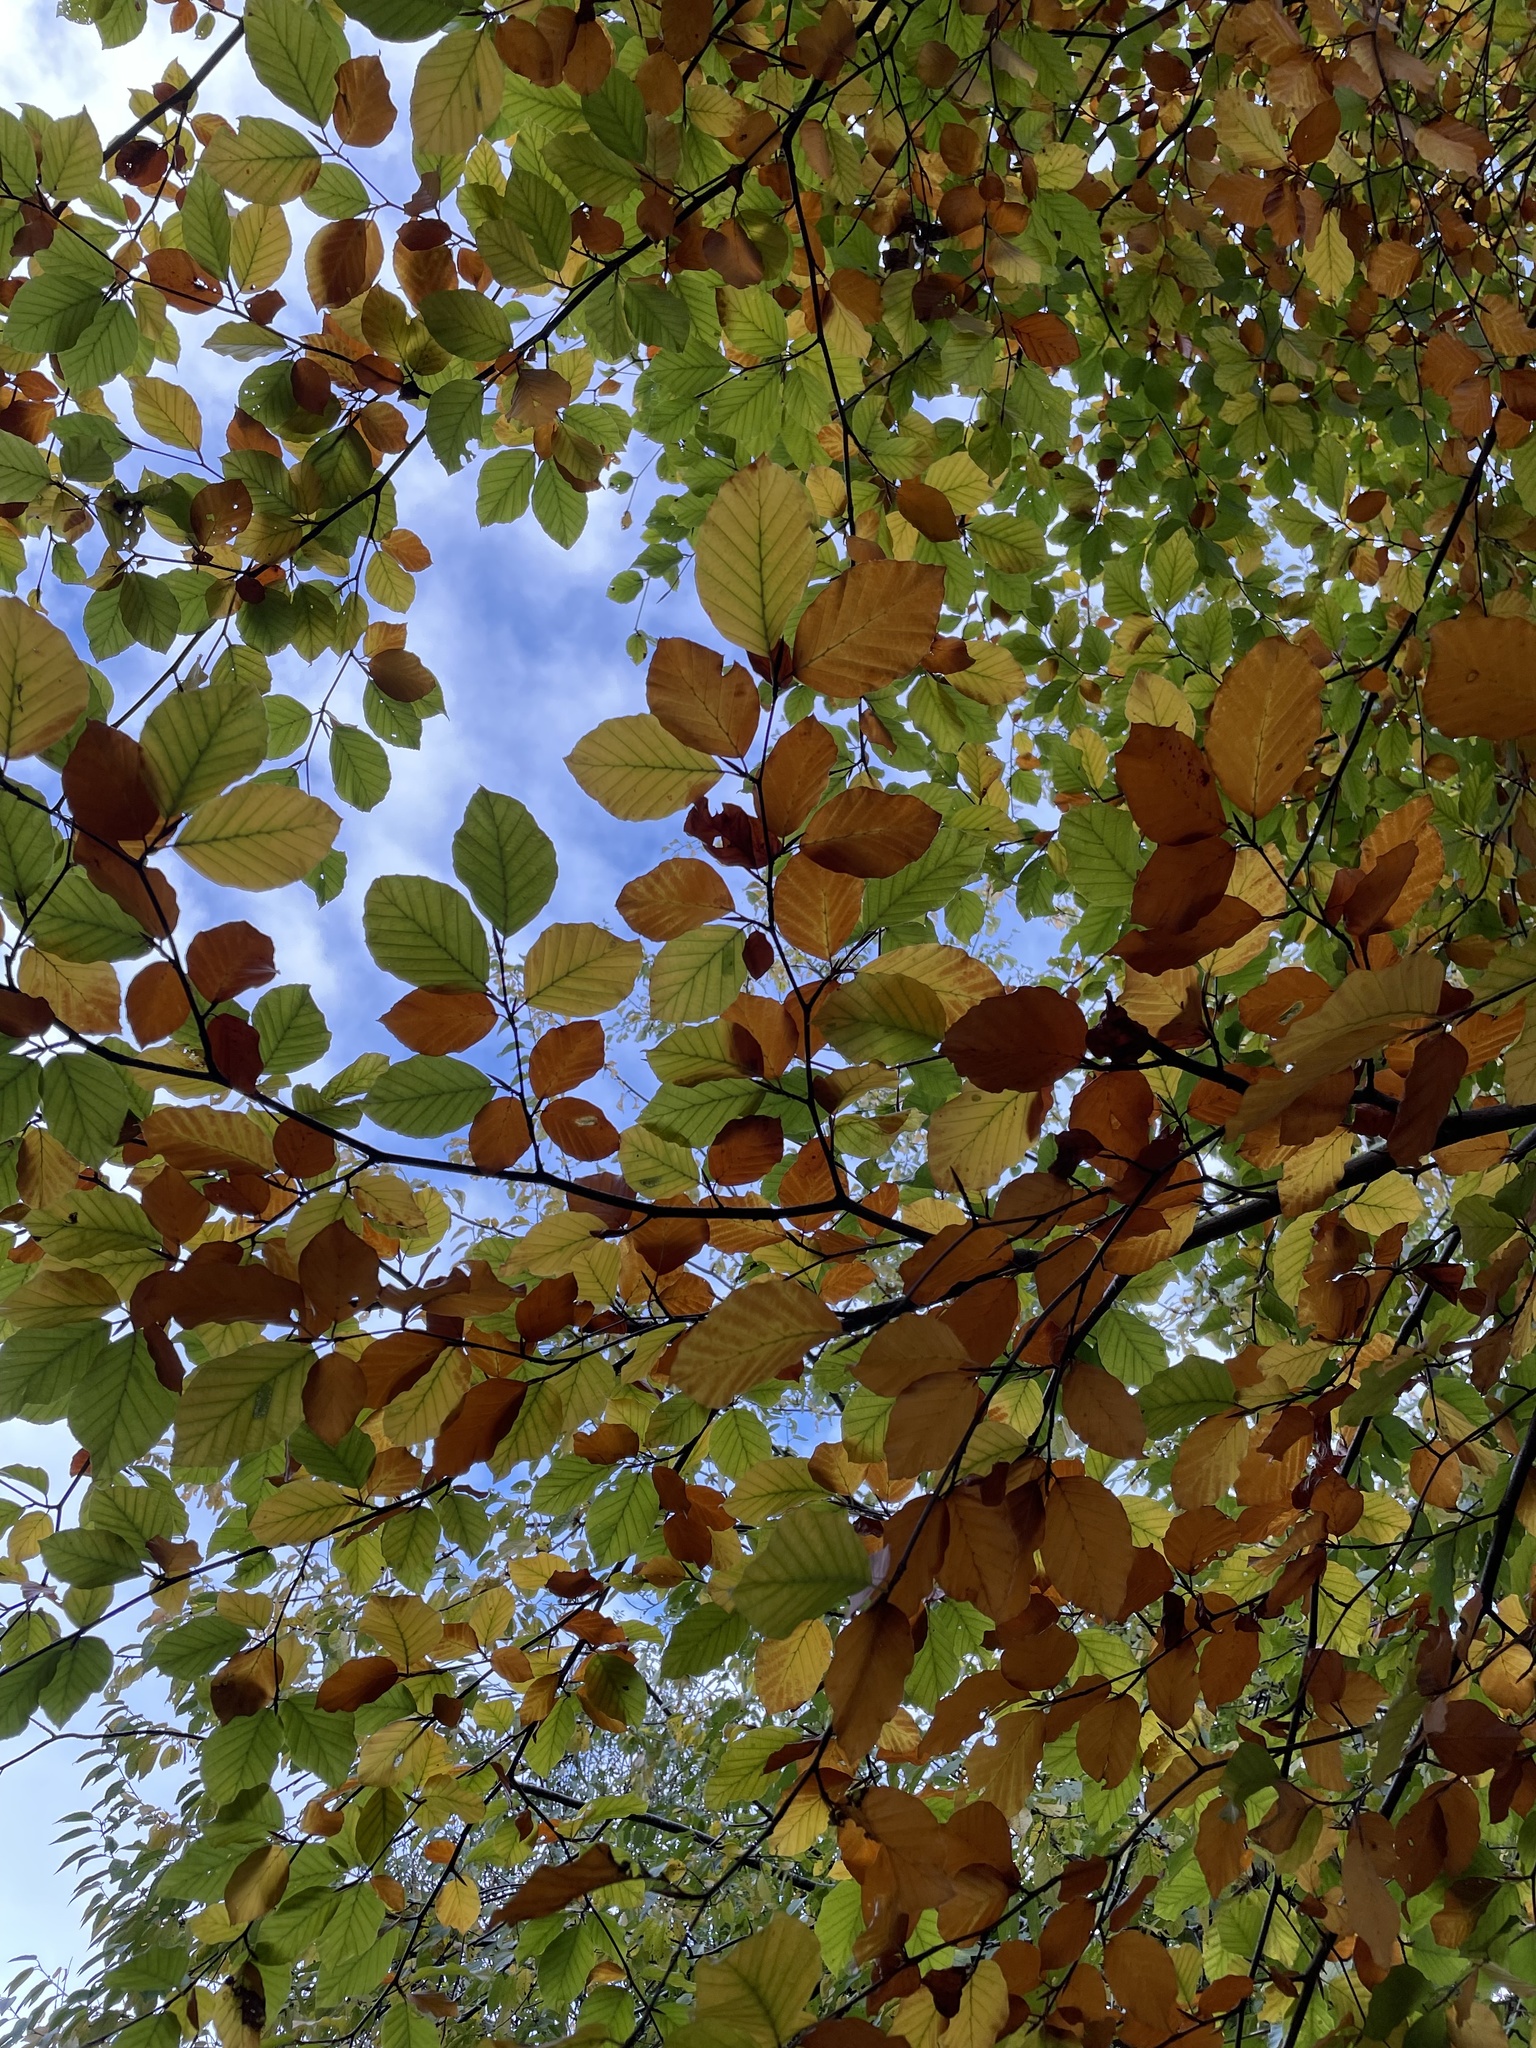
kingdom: Plantae
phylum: Tracheophyta
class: Magnoliopsida
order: Fagales
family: Fagaceae
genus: Fagus
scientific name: Fagus sylvatica
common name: Beech
